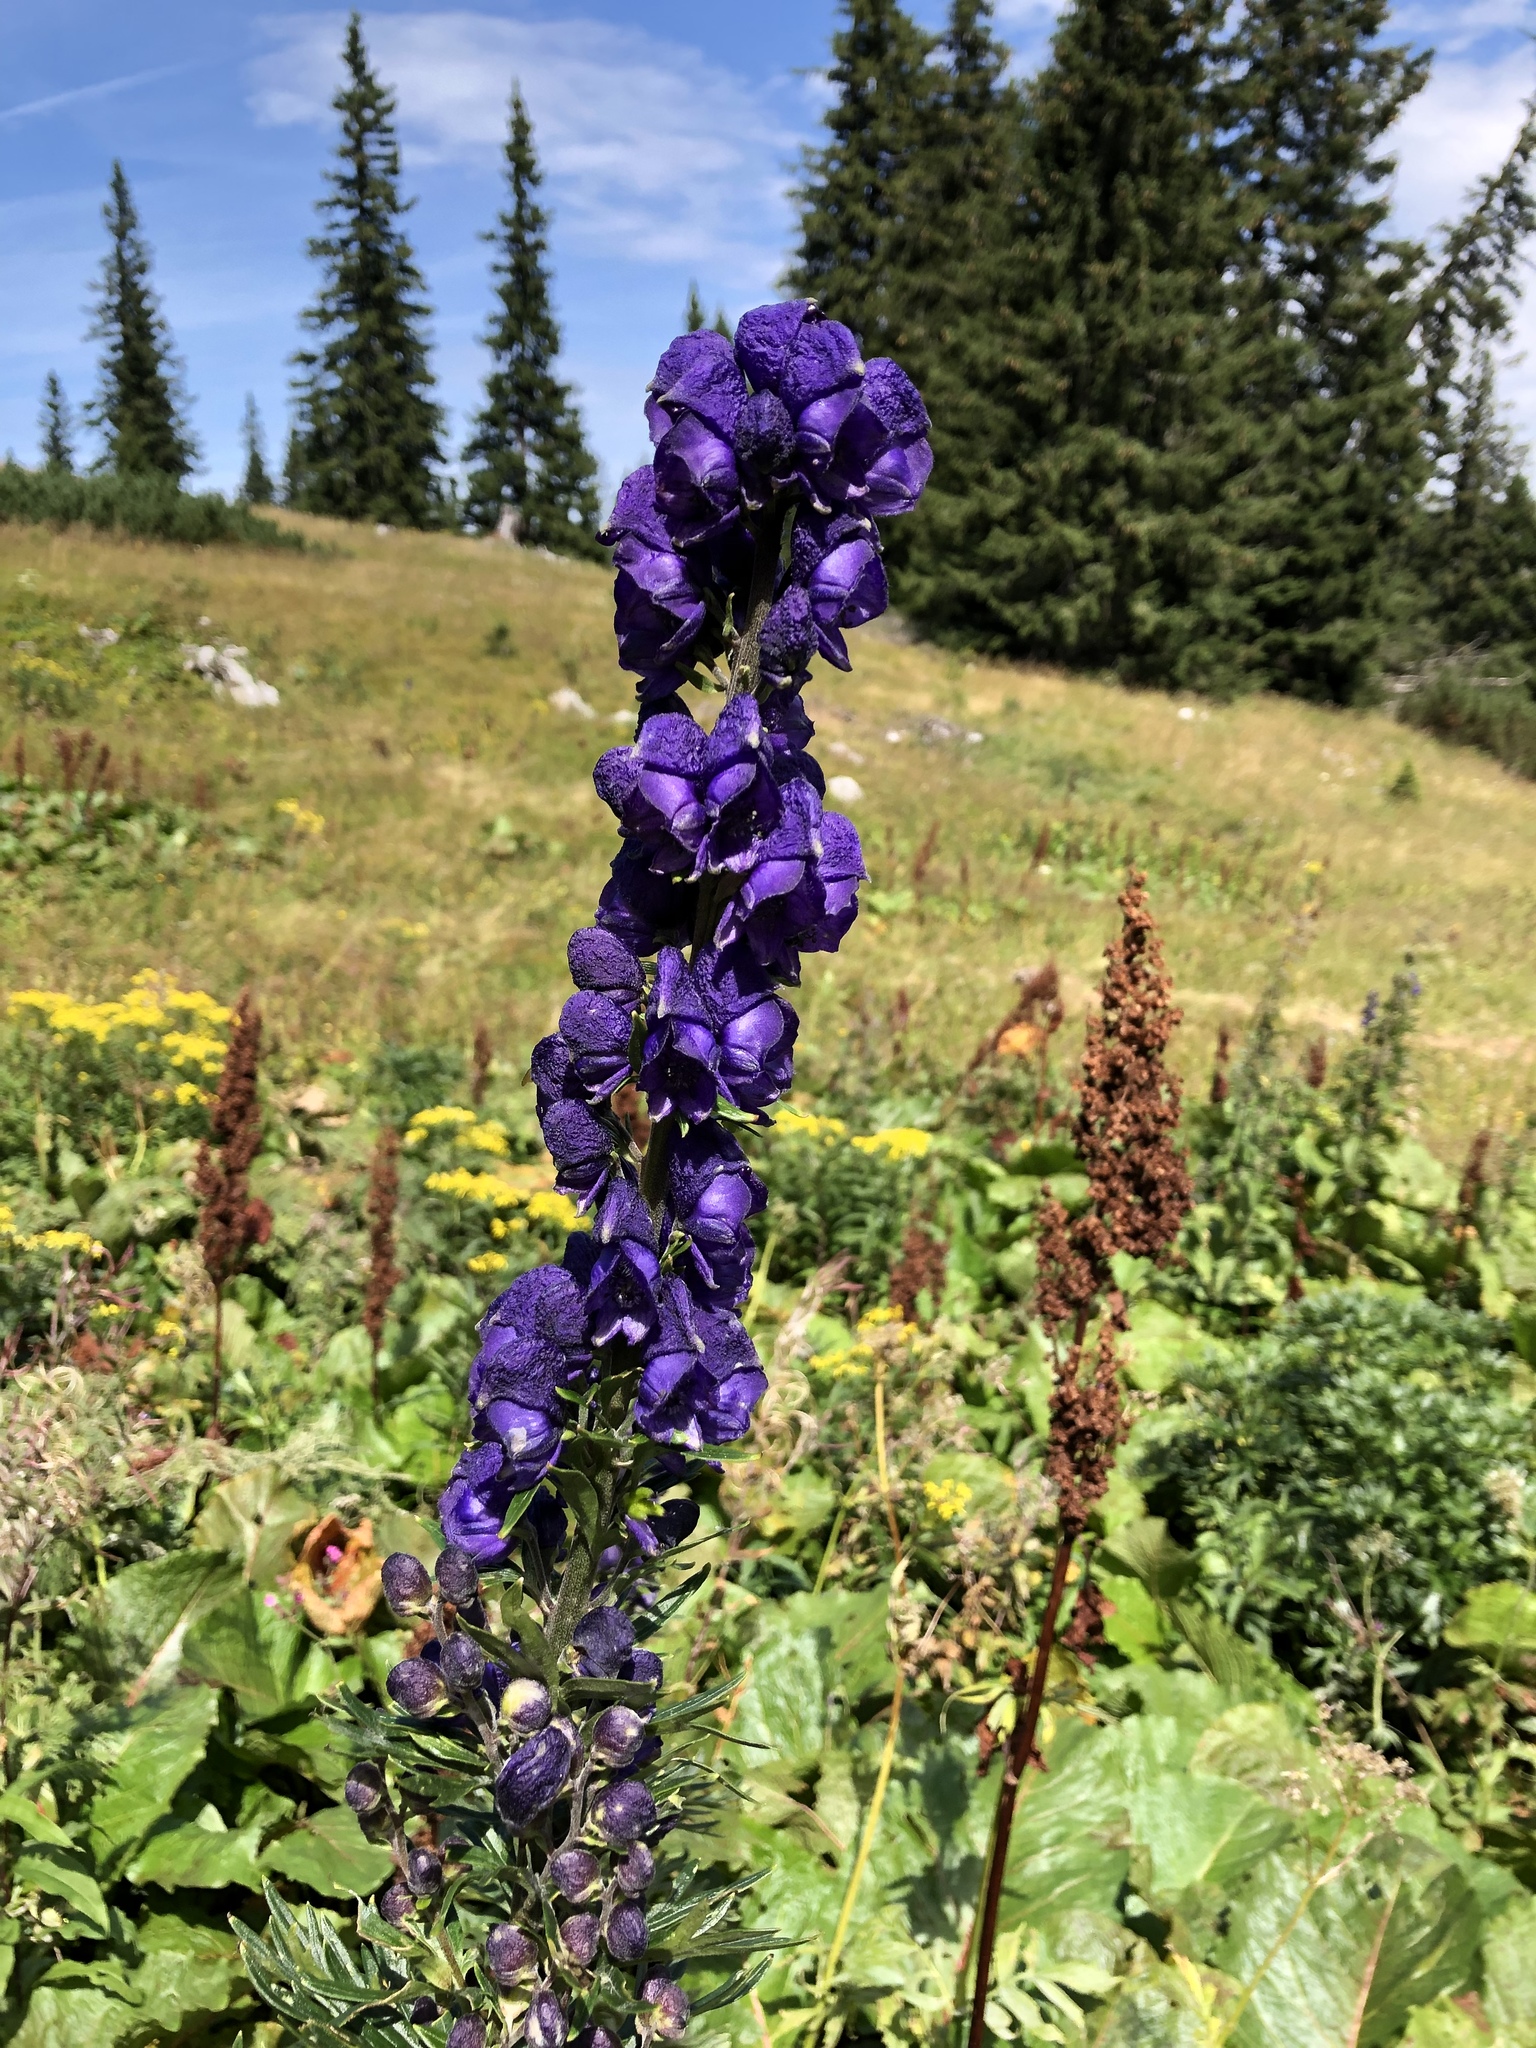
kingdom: Plantae
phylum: Tracheophyta
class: Magnoliopsida
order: Ranunculales
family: Ranunculaceae
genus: Aconitum
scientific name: Aconitum napellus
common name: Garden monkshood
